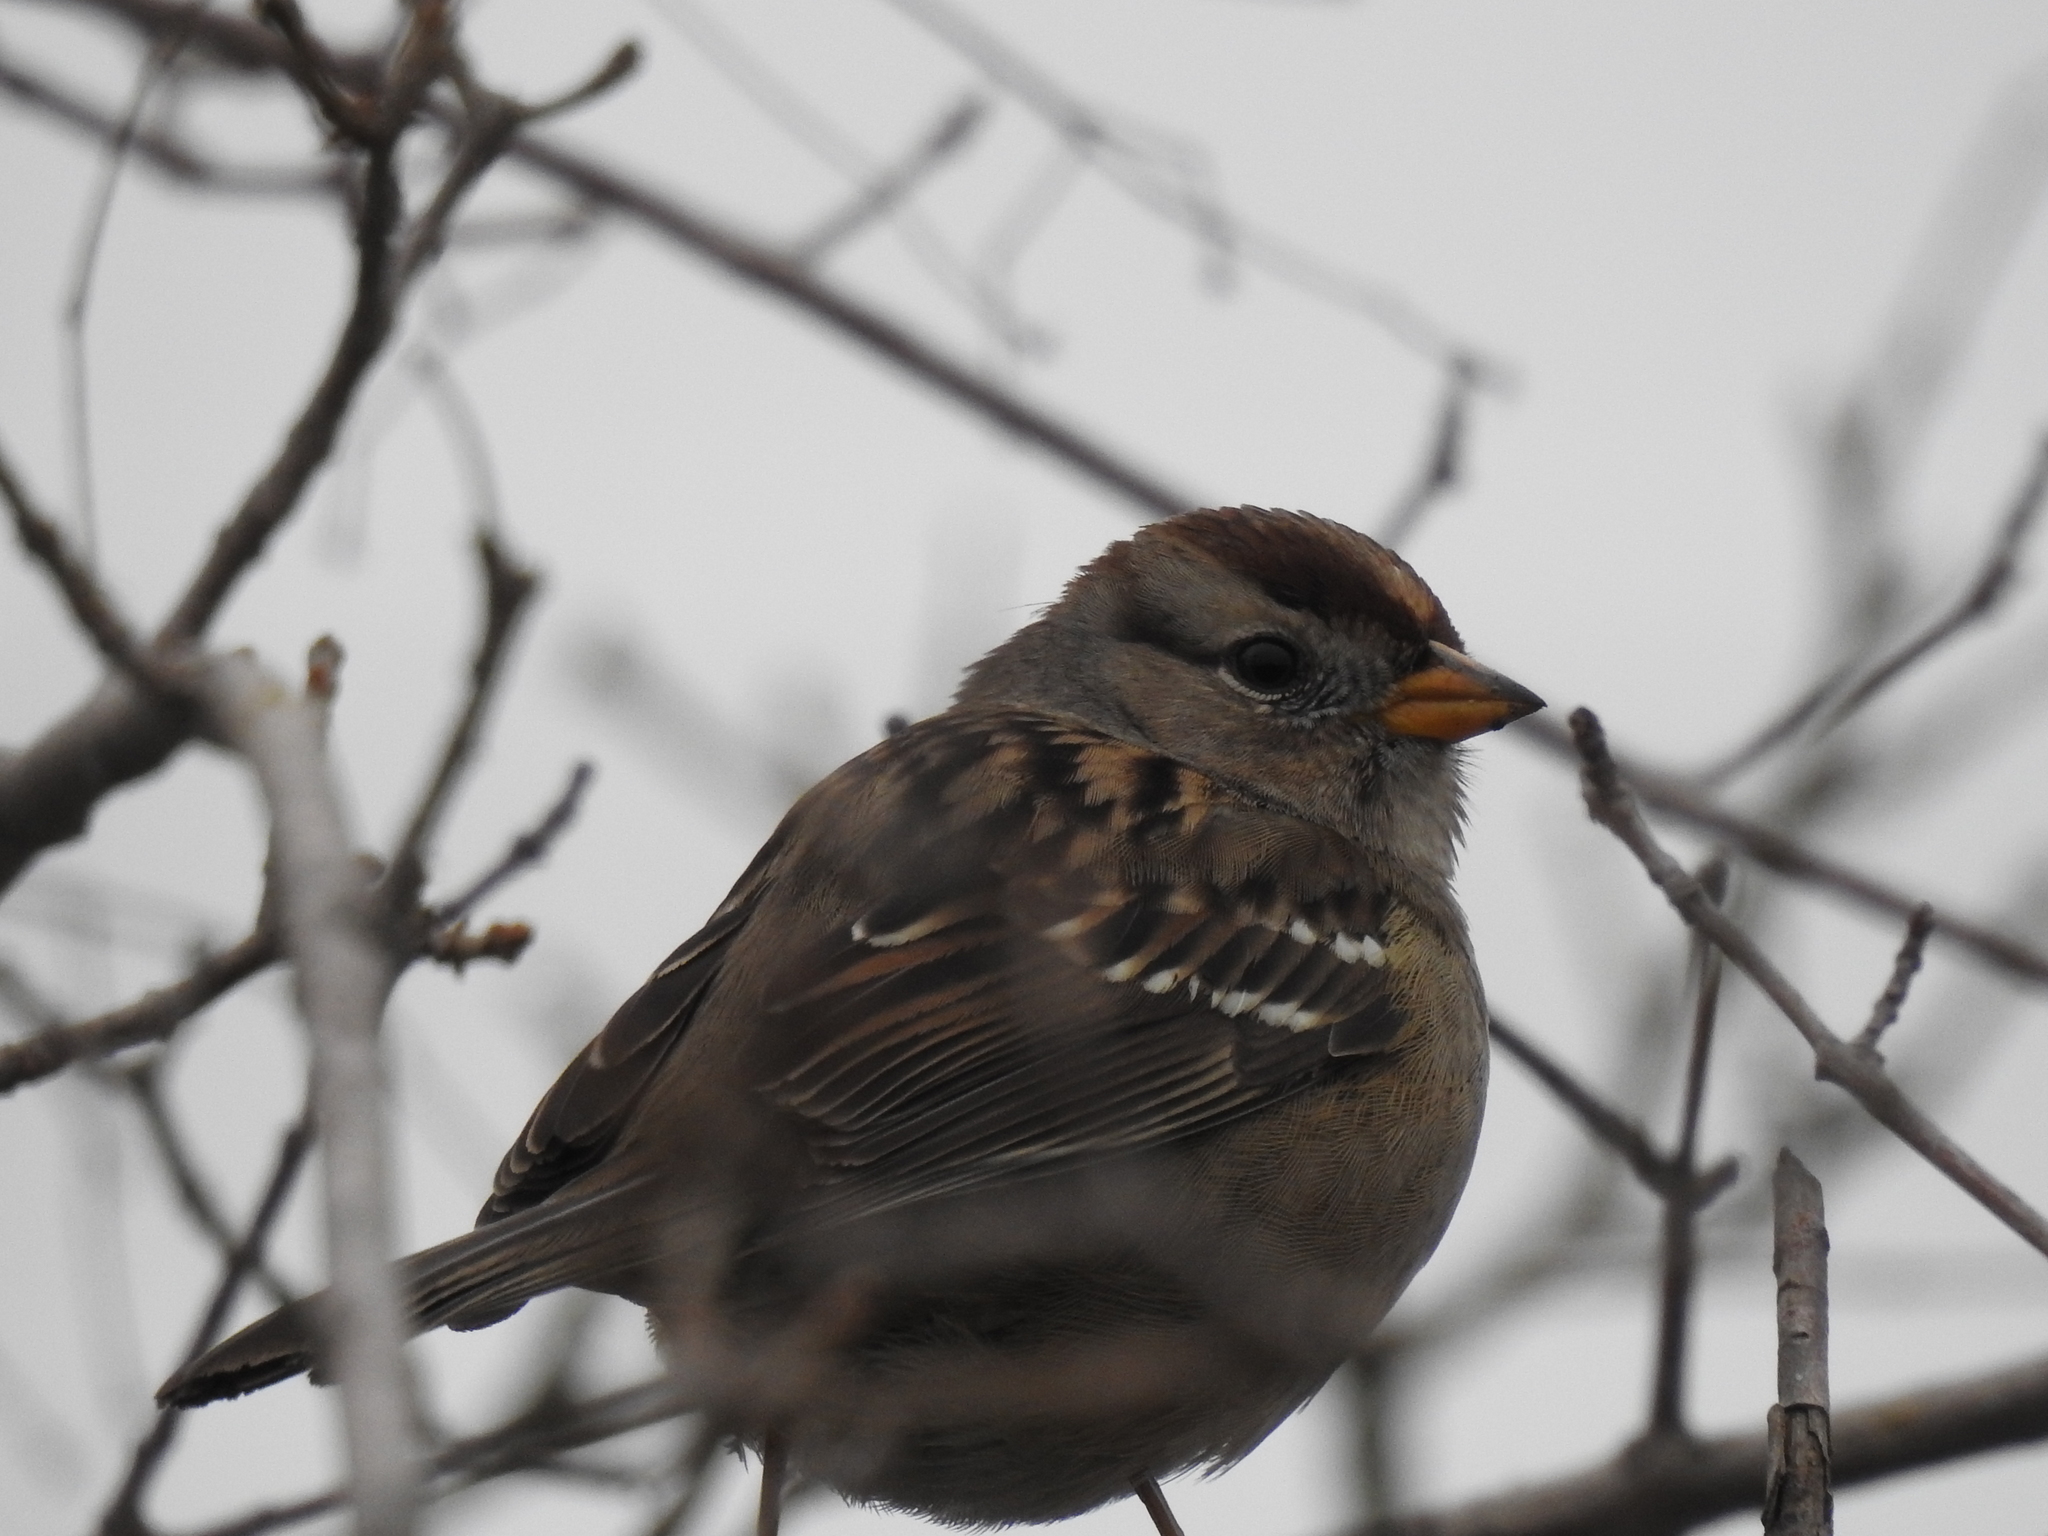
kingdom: Animalia
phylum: Chordata
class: Aves
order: Passeriformes
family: Passerellidae
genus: Zonotrichia
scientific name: Zonotrichia leucophrys
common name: White-crowned sparrow
